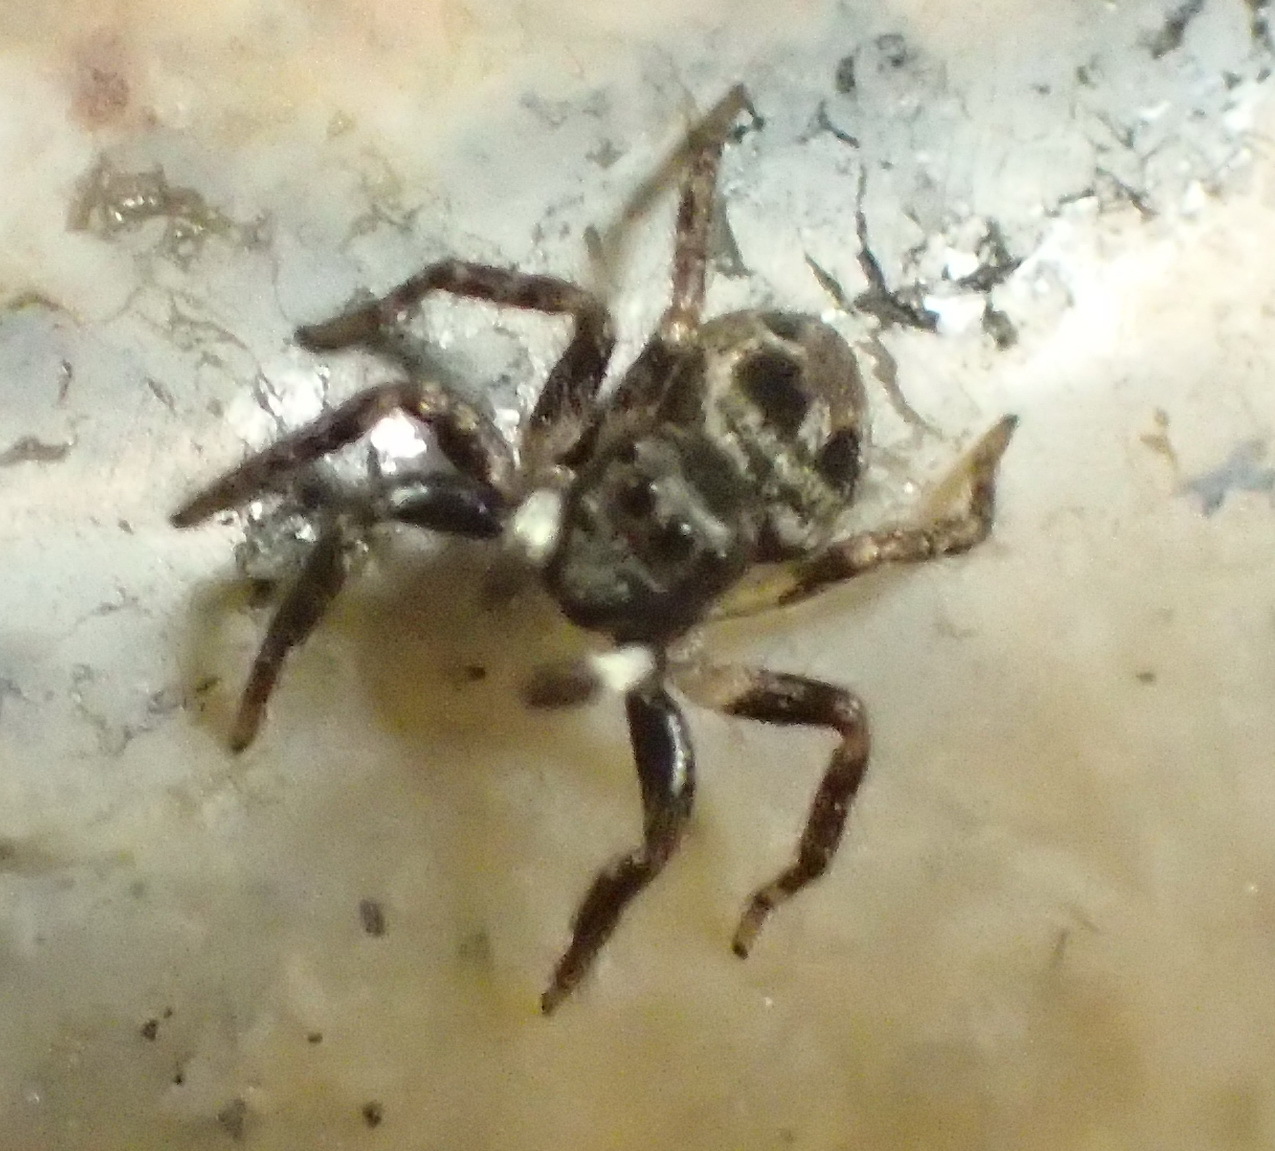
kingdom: Animalia
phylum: Arthropoda
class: Arachnida
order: Araneae
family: Salticidae
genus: Anasaitis
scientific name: Anasaitis canosa
